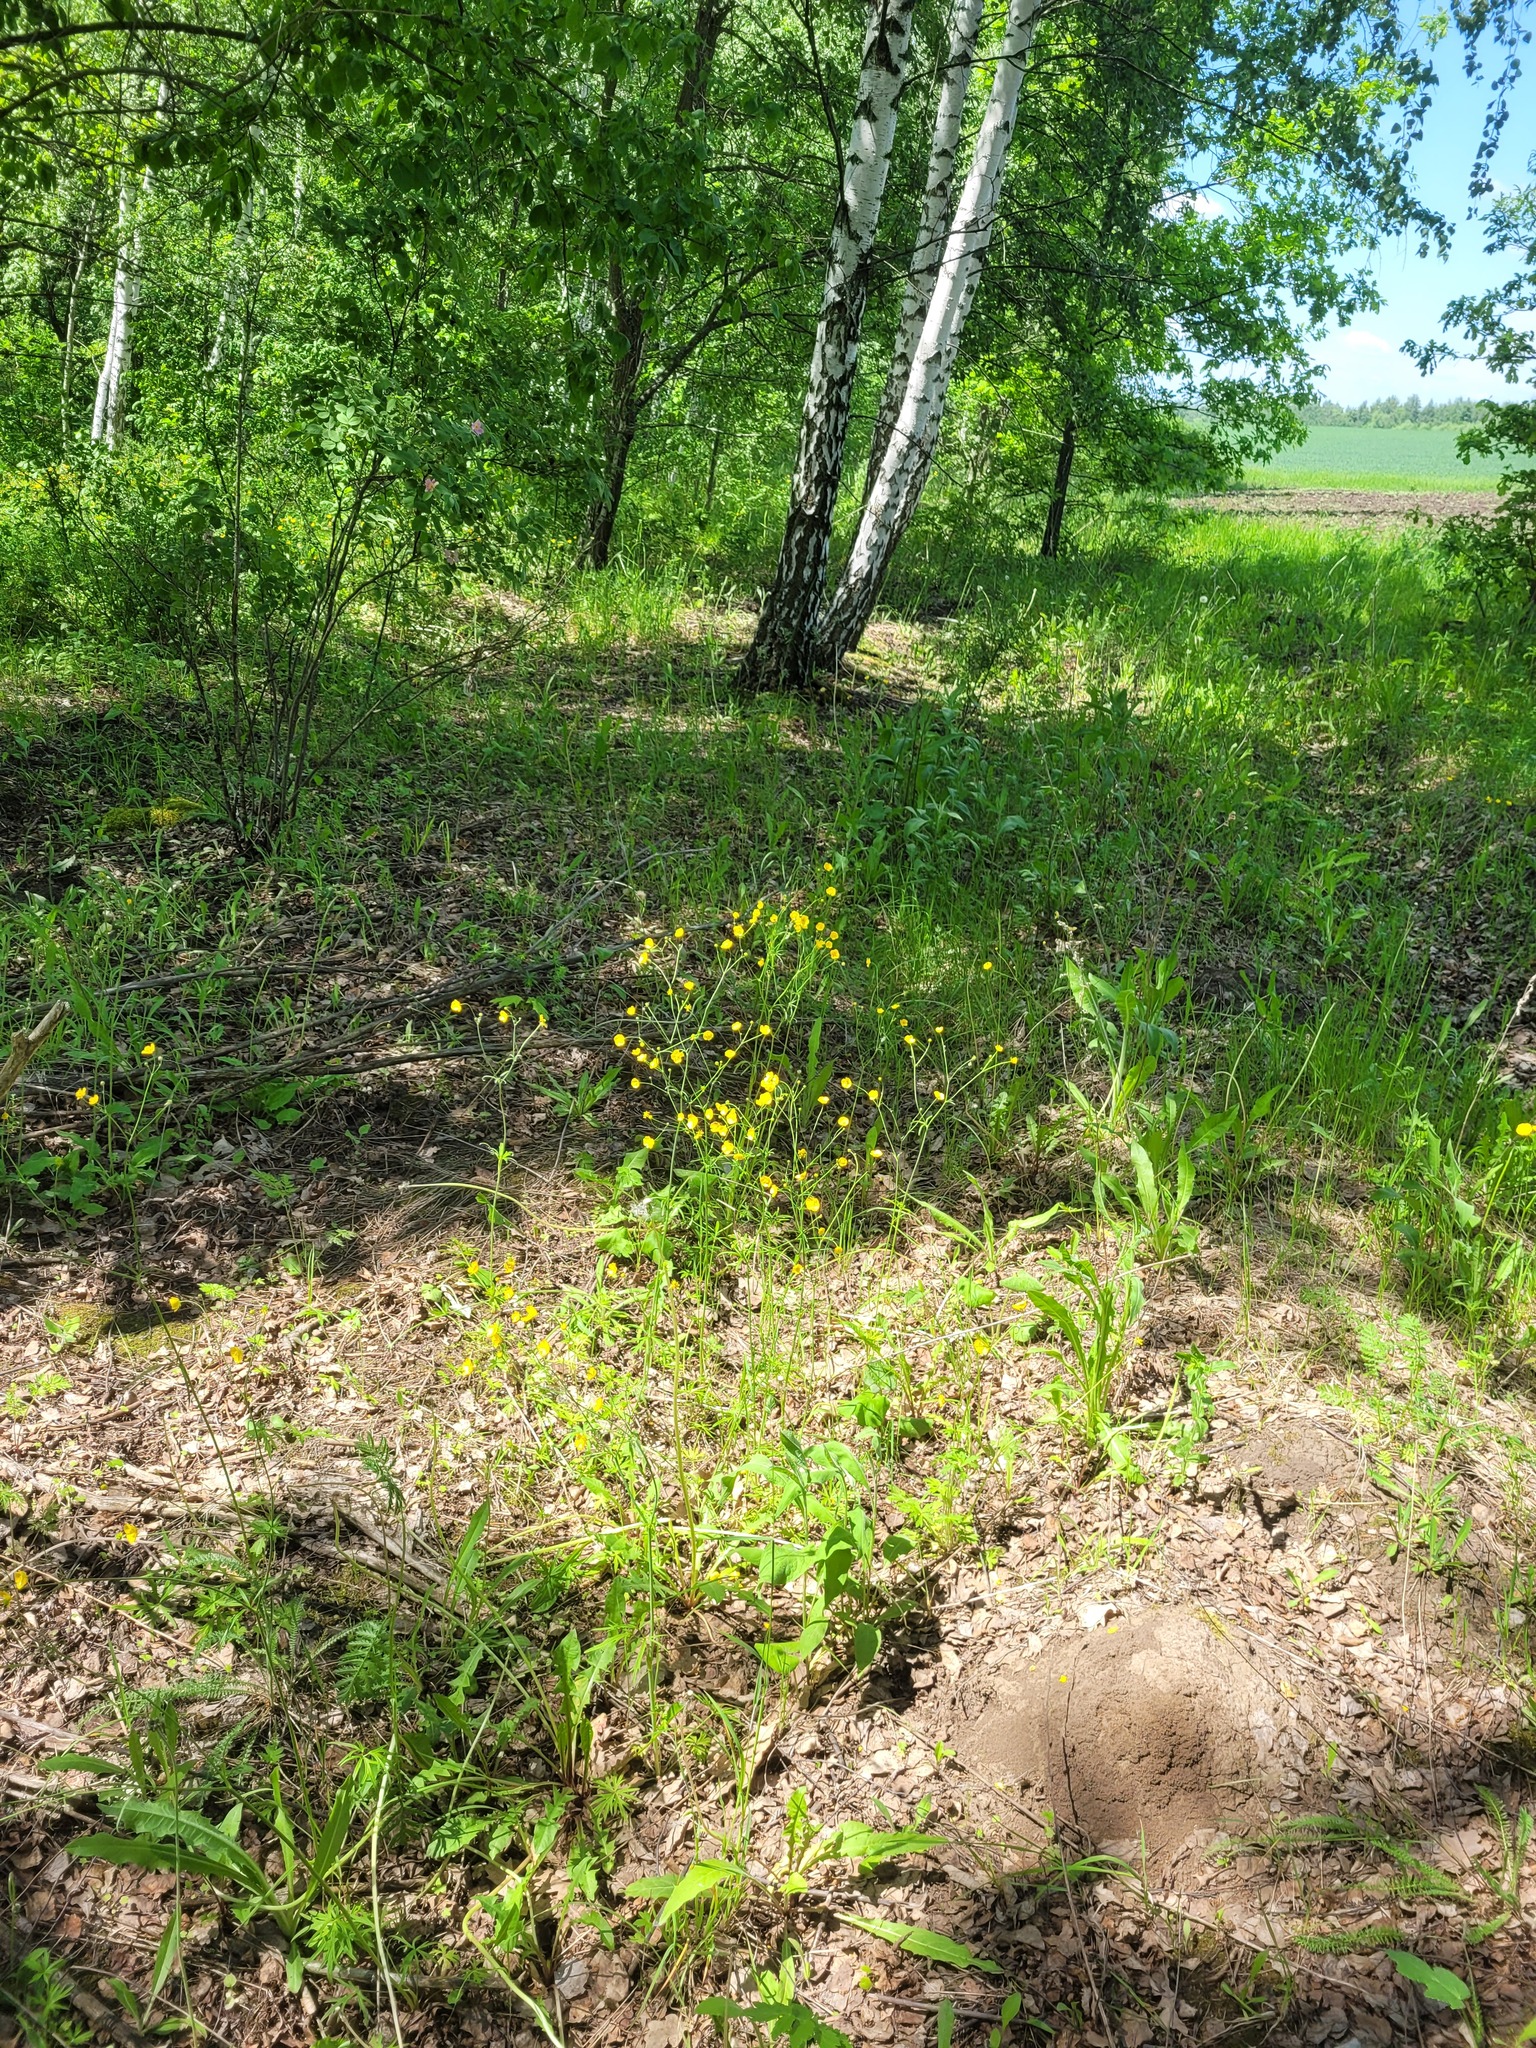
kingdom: Plantae
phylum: Tracheophyta
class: Magnoliopsida
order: Ranunculales
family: Ranunculaceae
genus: Ranunculus
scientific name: Ranunculus acris
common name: Meadow buttercup
